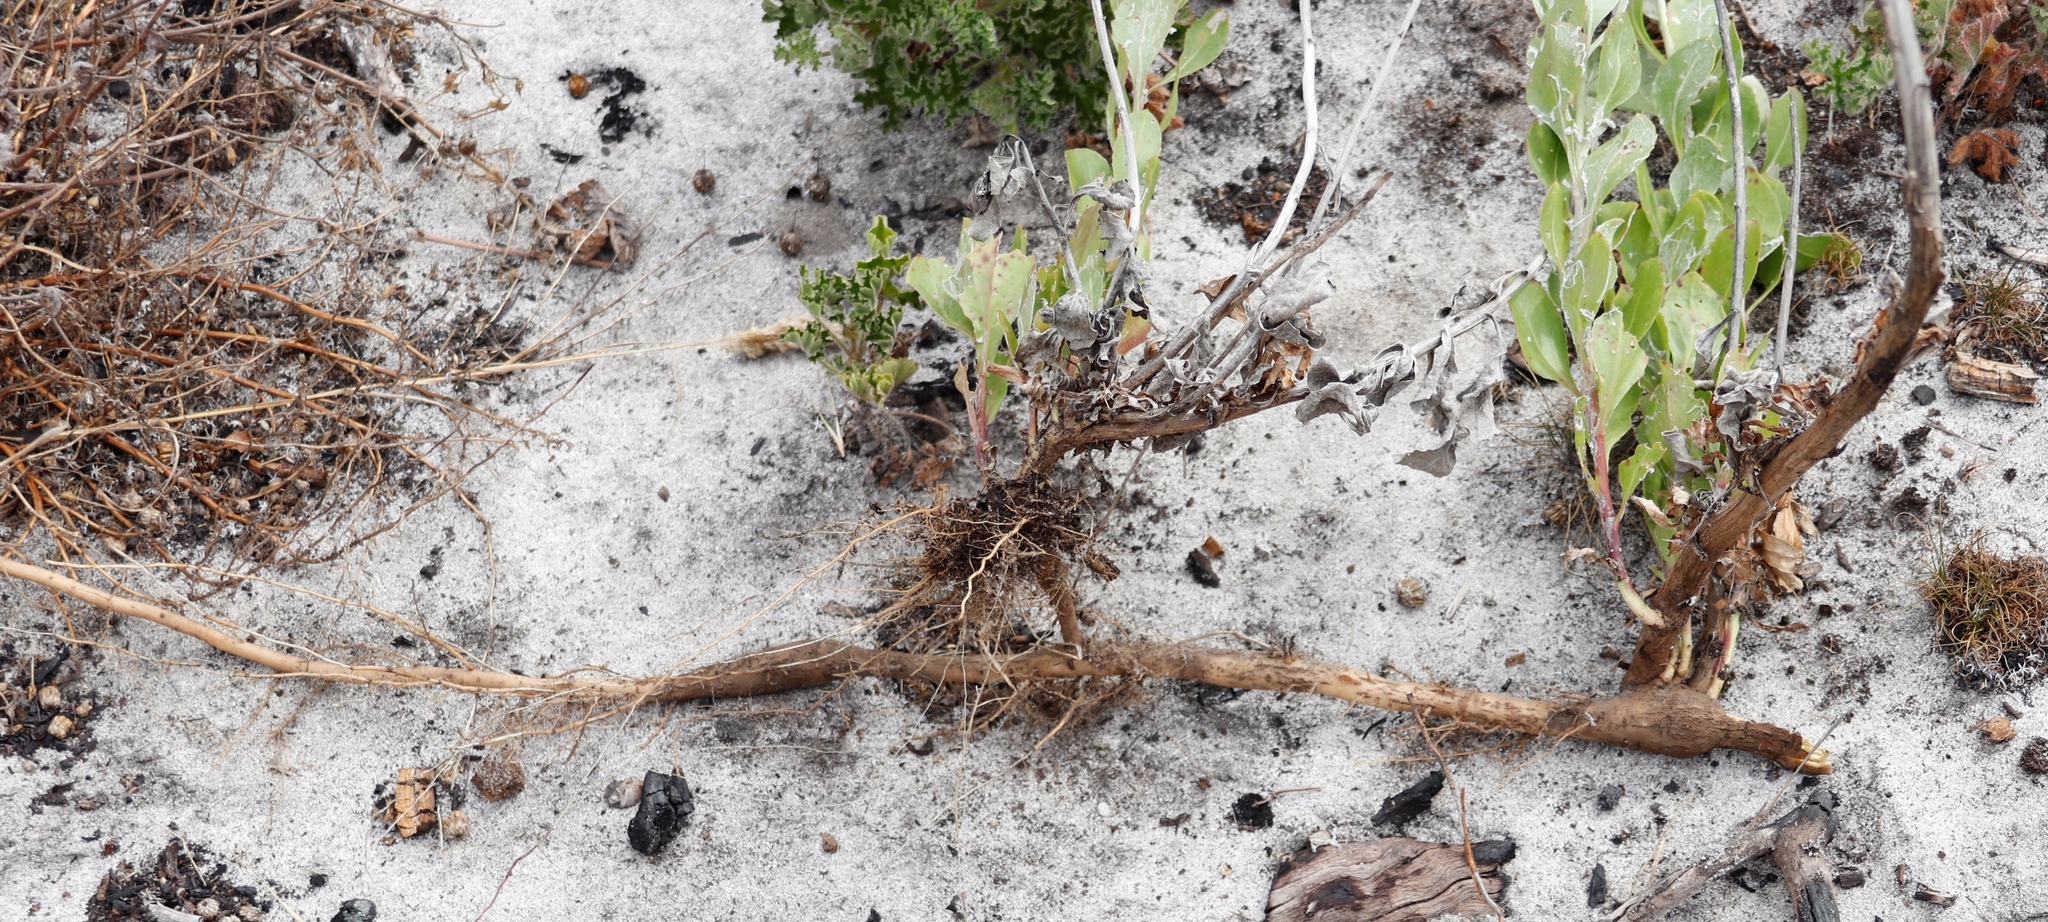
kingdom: Plantae
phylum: Tracheophyta
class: Magnoliopsida
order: Asterales
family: Asteraceae
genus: Osteospermum
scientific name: Osteospermum moniliferum
